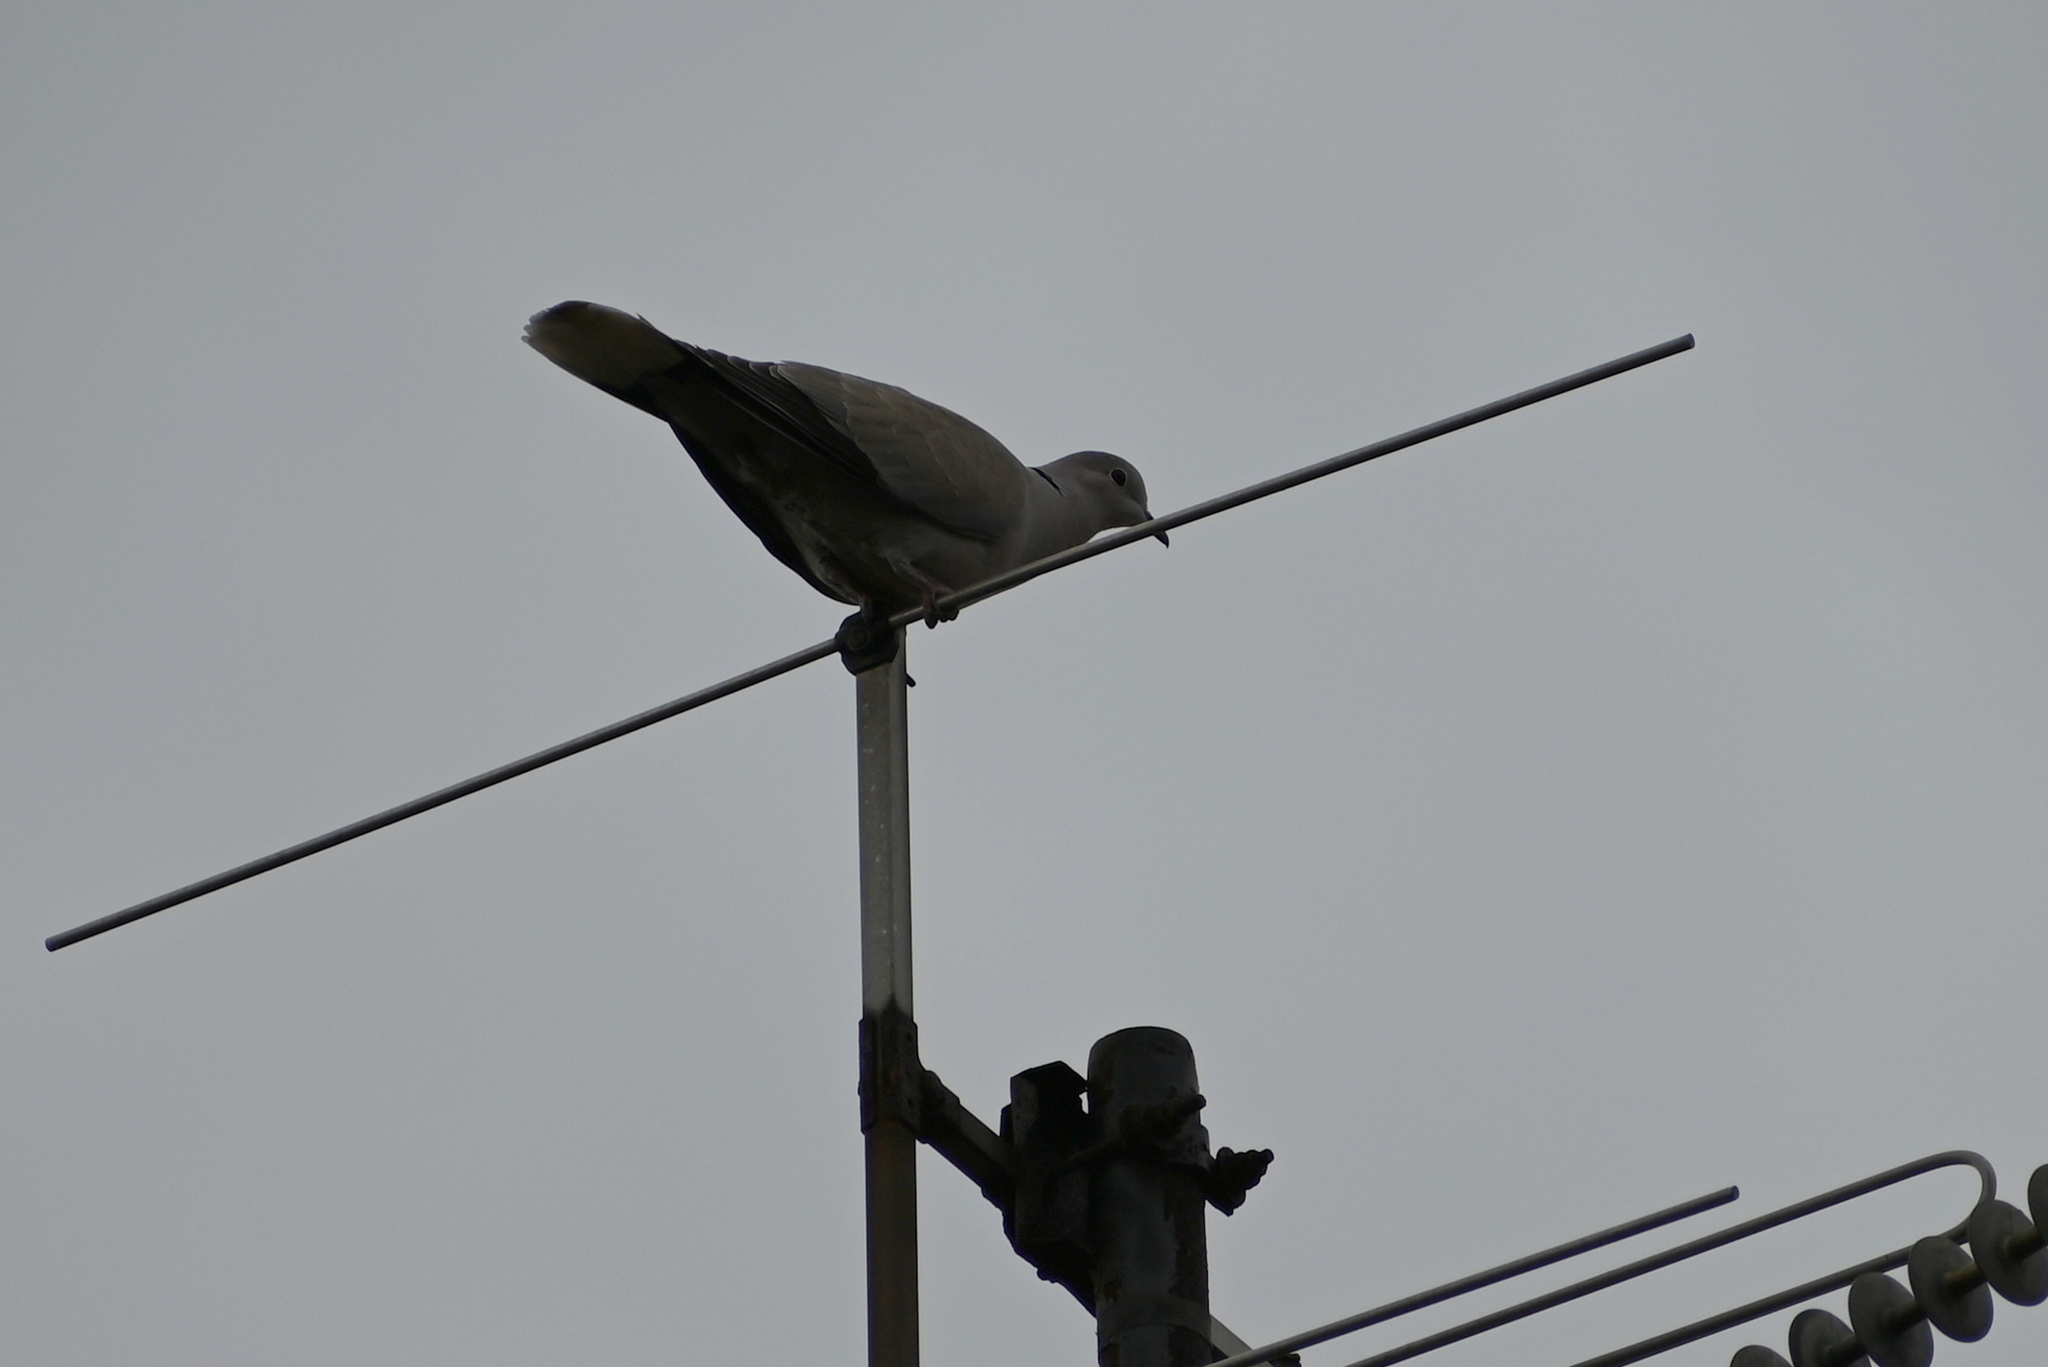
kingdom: Animalia
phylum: Chordata
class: Aves
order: Columbiformes
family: Columbidae
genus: Streptopelia
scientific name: Streptopelia decaocto
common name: Eurasian collared dove
